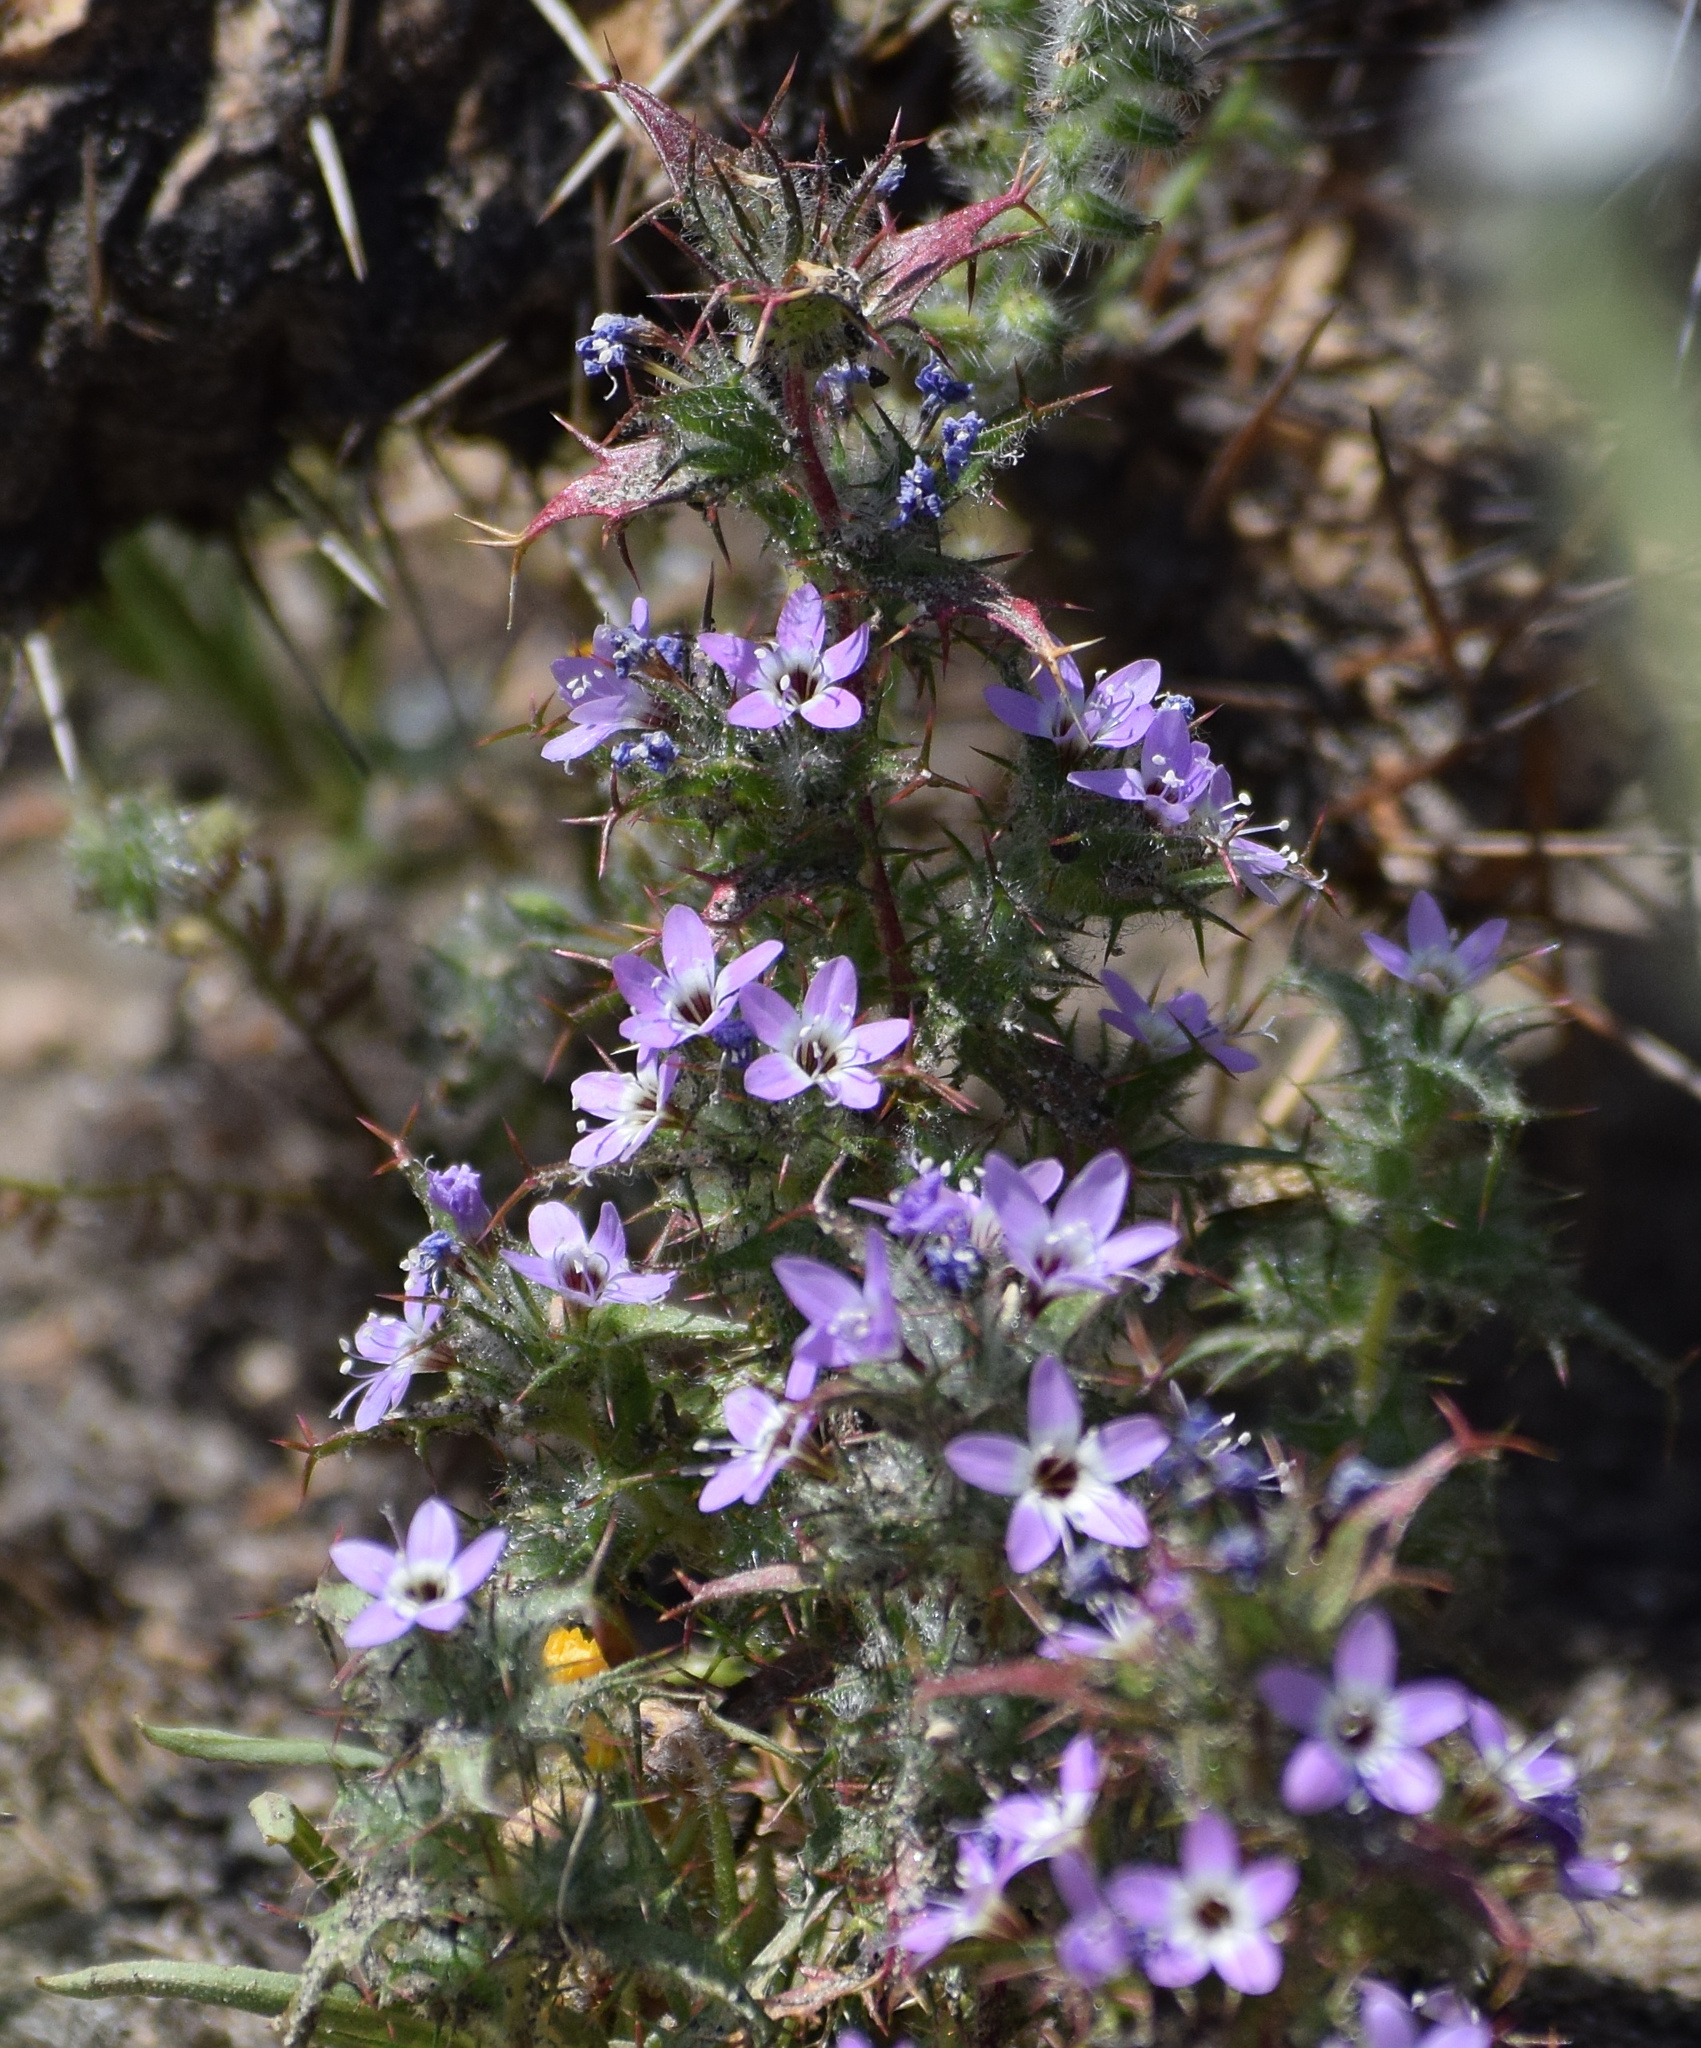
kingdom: Plantae
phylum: Tracheophyta
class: Magnoliopsida
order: Ericales
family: Polemoniaceae
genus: Navarretia
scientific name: Navarretia hamata
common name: Hooked navarretia
